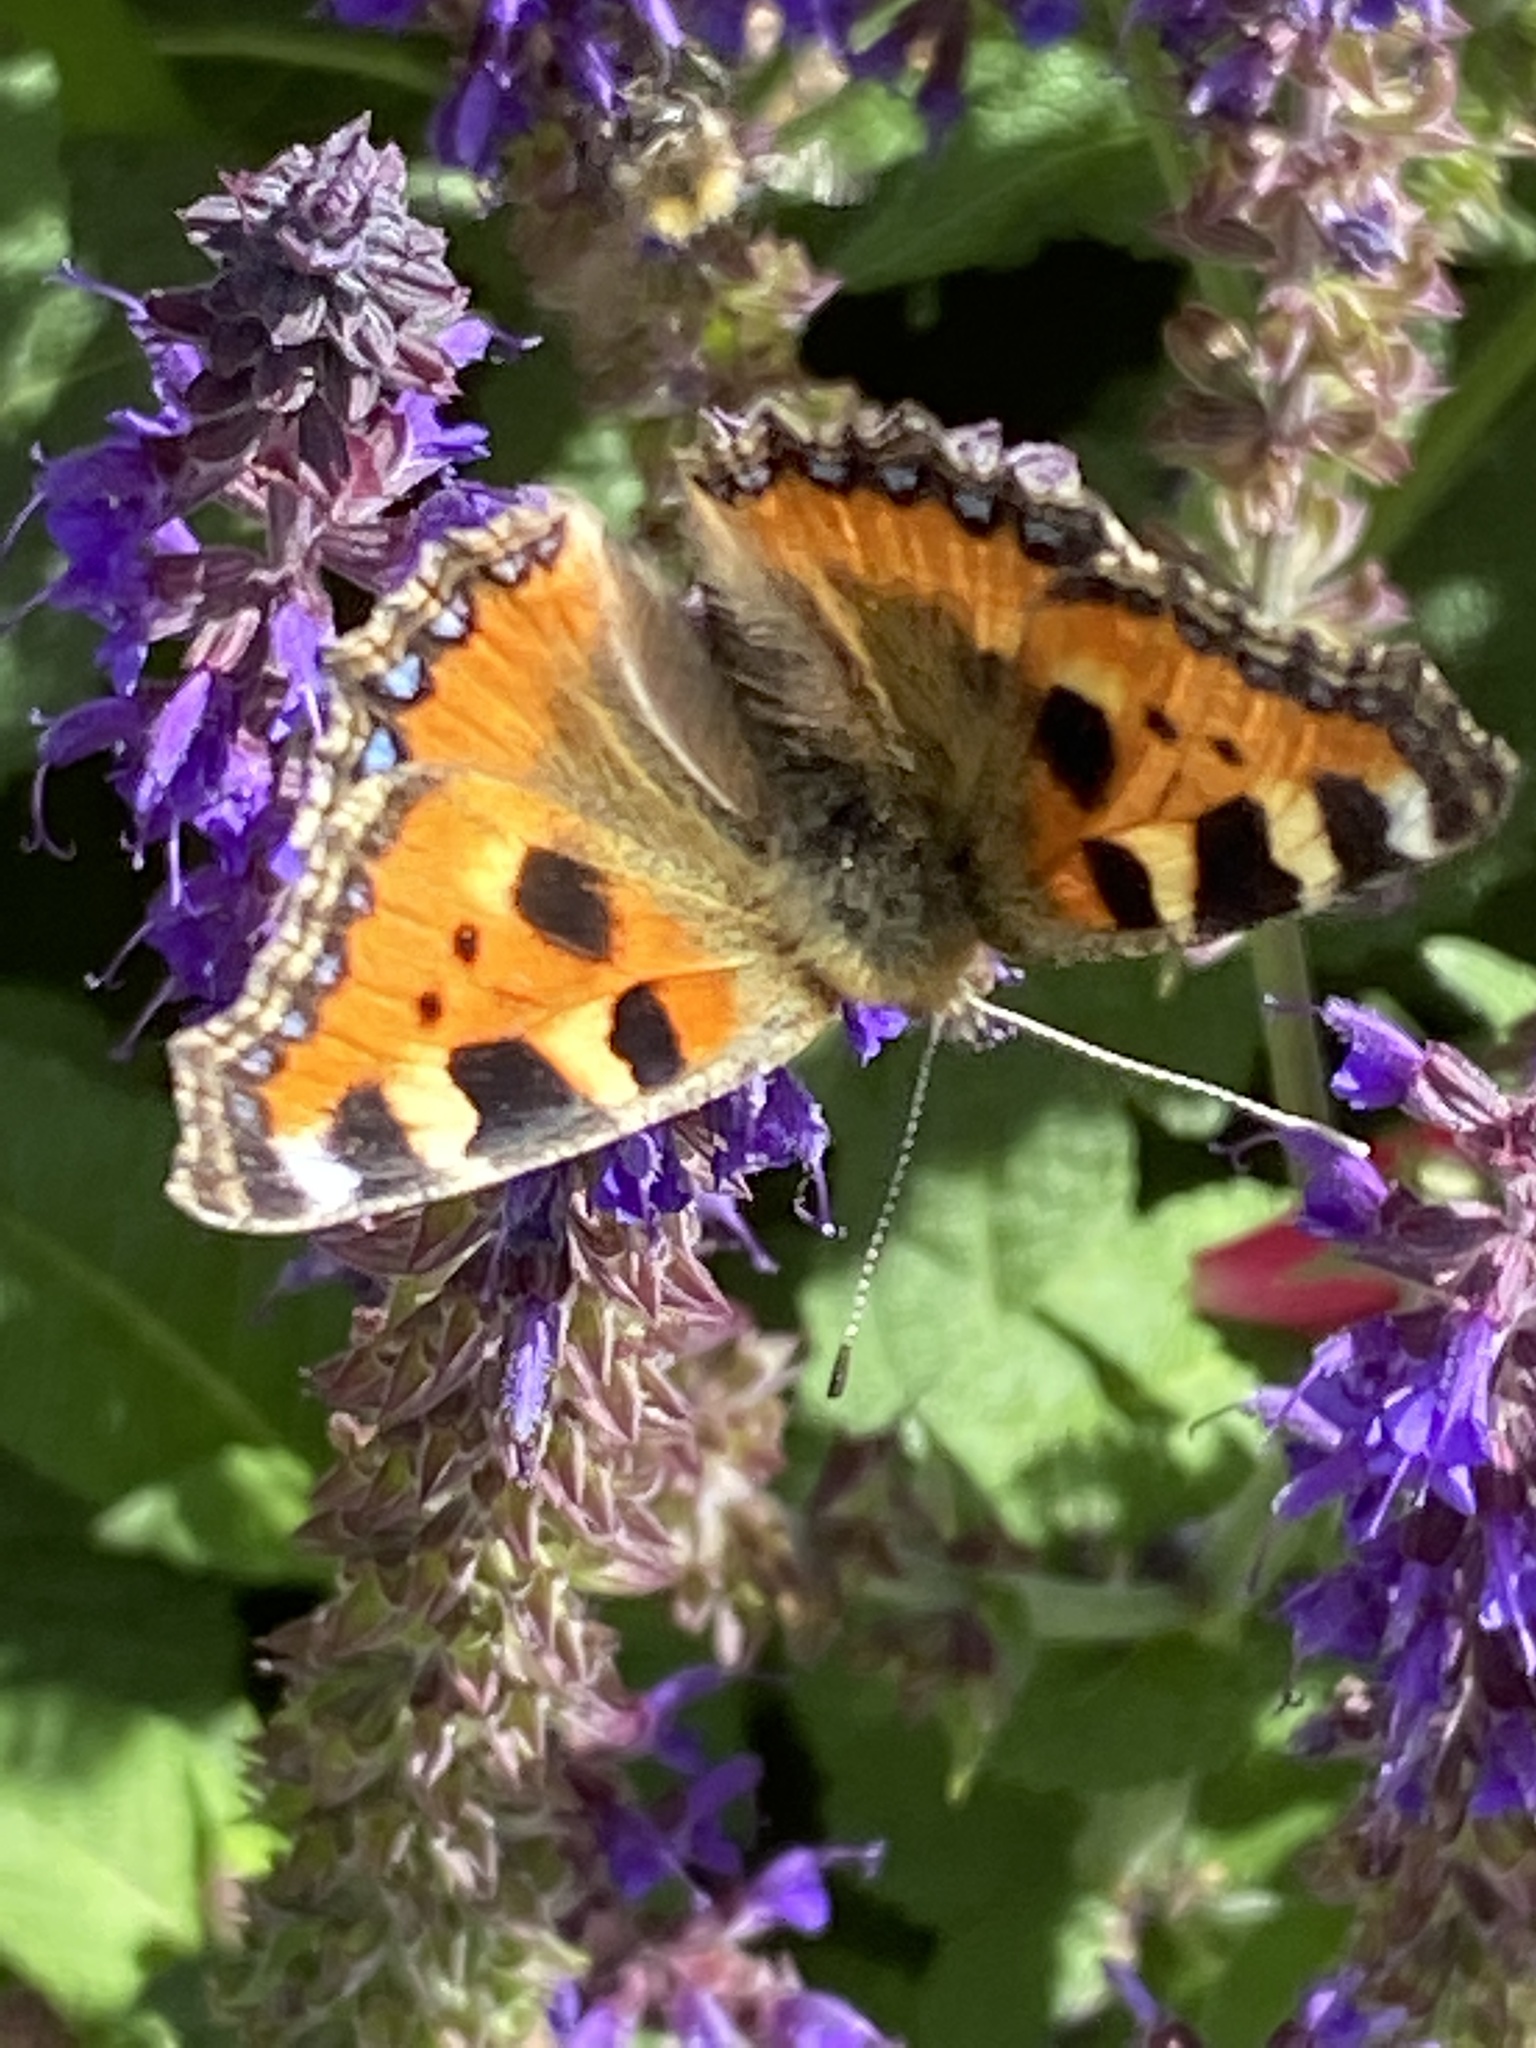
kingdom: Animalia
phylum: Arthropoda
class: Insecta
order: Lepidoptera
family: Nymphalidae
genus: Aglais
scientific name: Aglais urticae
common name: Small tortoiseshell
